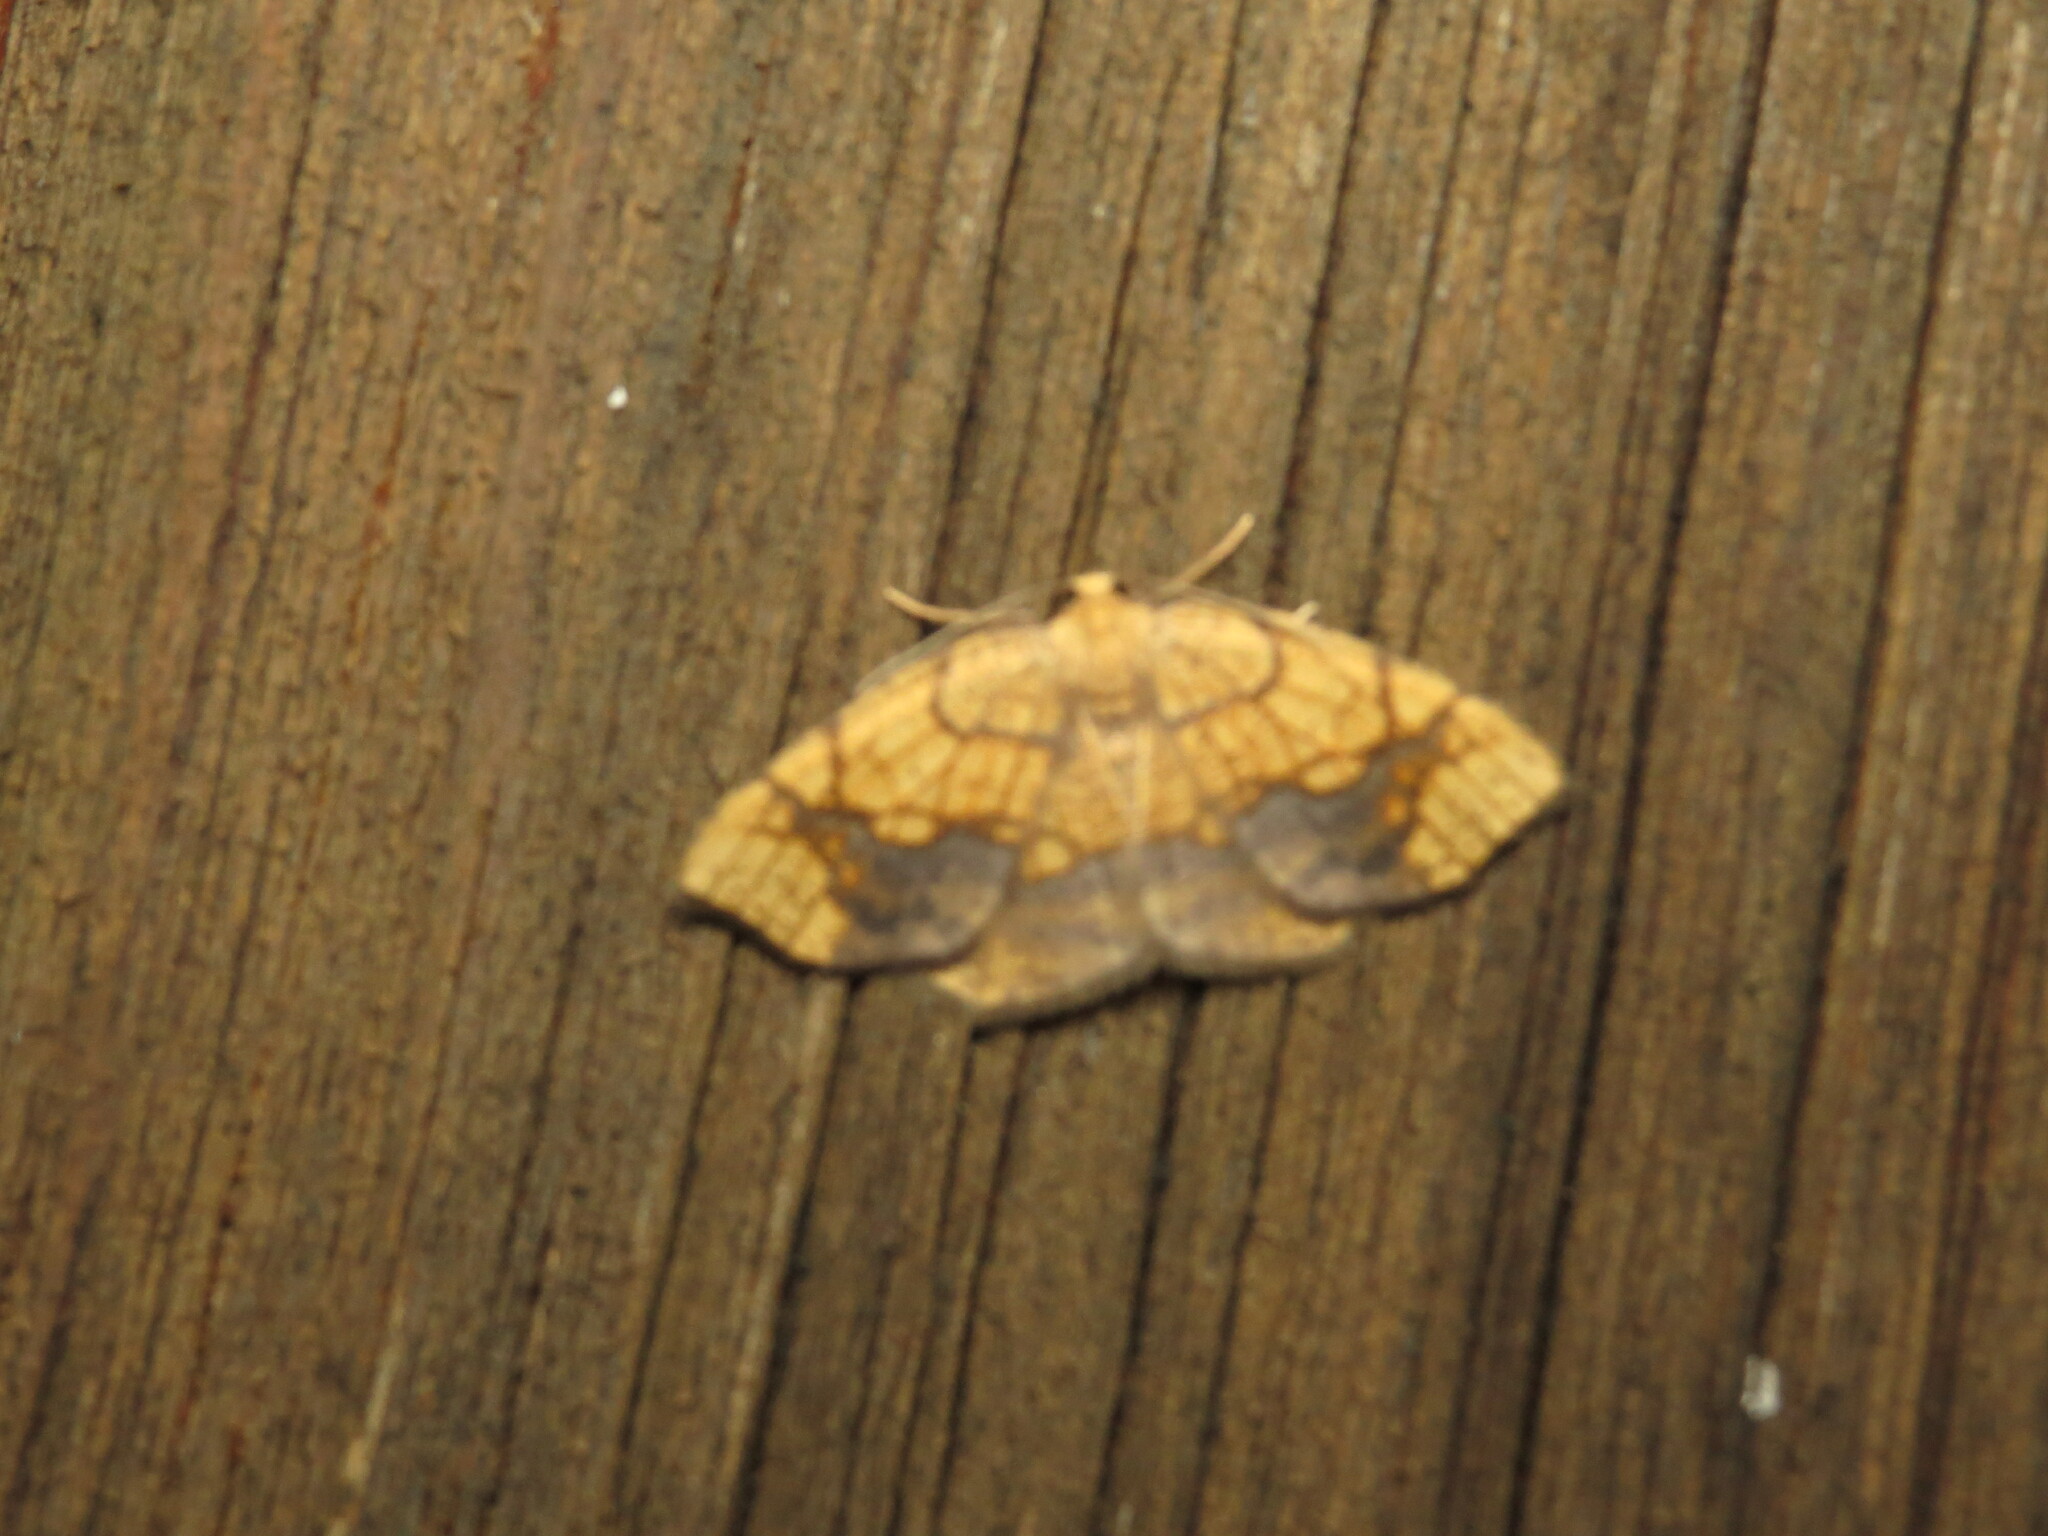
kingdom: Animalia
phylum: Arthropoda
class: Insecta
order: Lepidoptera
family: Geometridae
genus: Nematocampa
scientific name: Nematocampa resistaria
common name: Horned spanworm moth
